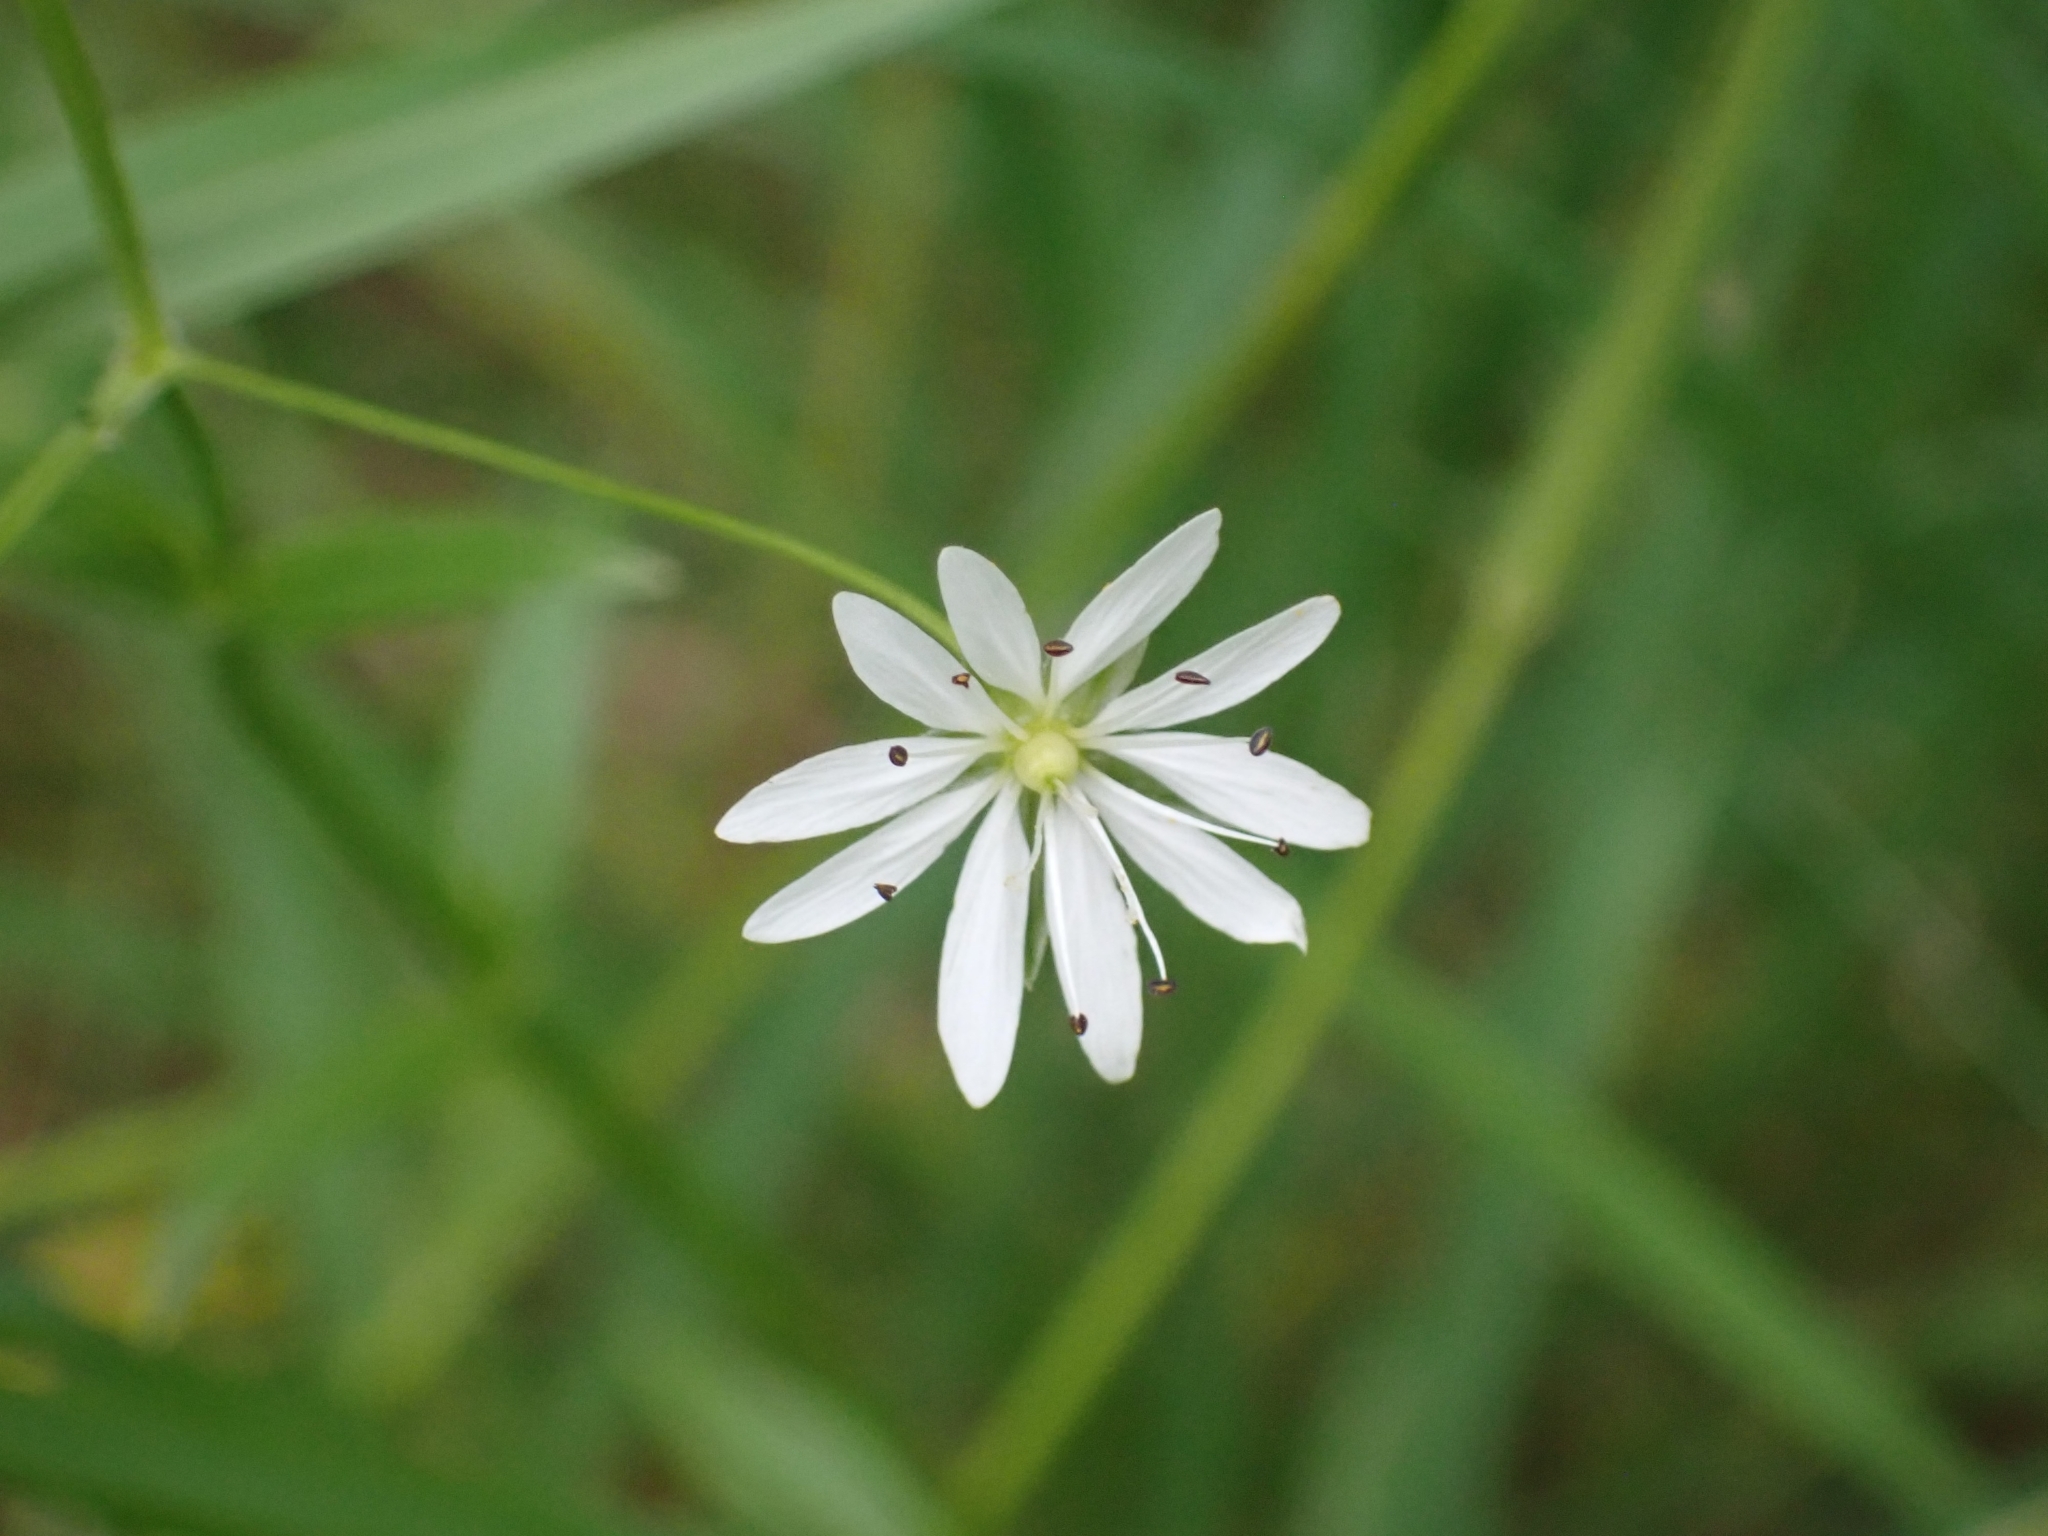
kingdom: Plantae
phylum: Tracheophyta
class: Magnoliopsida
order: Caryophyllales
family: Caryophyllaceae
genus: Stellaria
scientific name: Stellaria graminea
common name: Grass-like starwort
